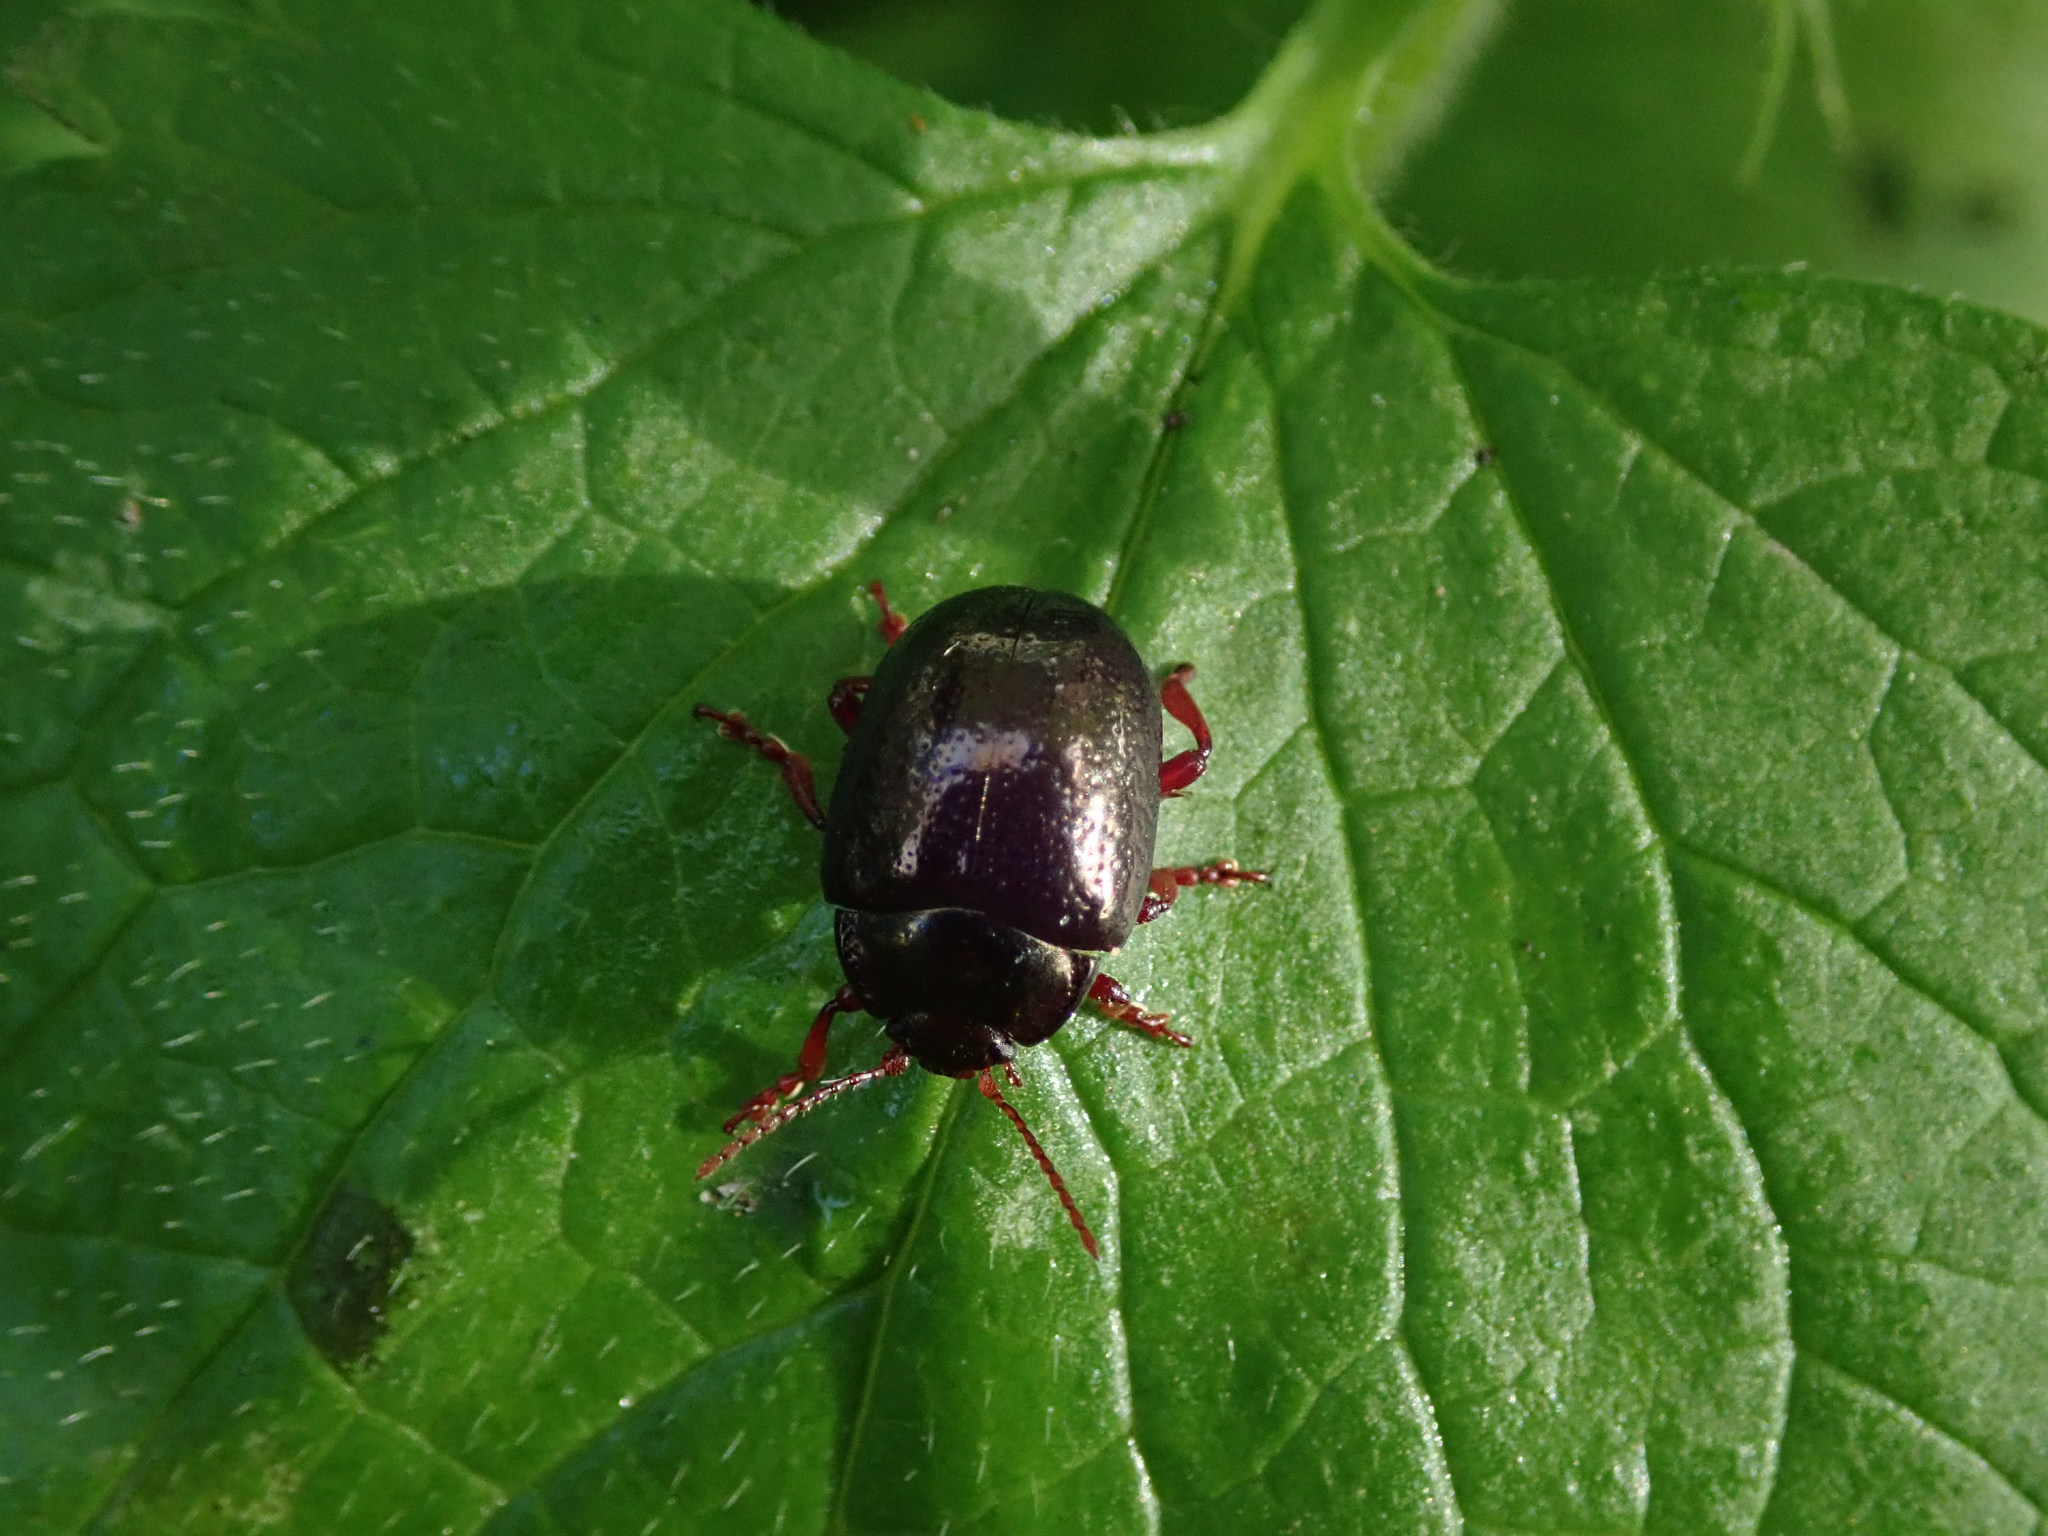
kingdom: Animalia
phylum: Arthropoda
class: Insecta
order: Coleoptera
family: Chrysomelidae
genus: Chrysolina
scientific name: Chrysolina bankii
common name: Leaf beetle
